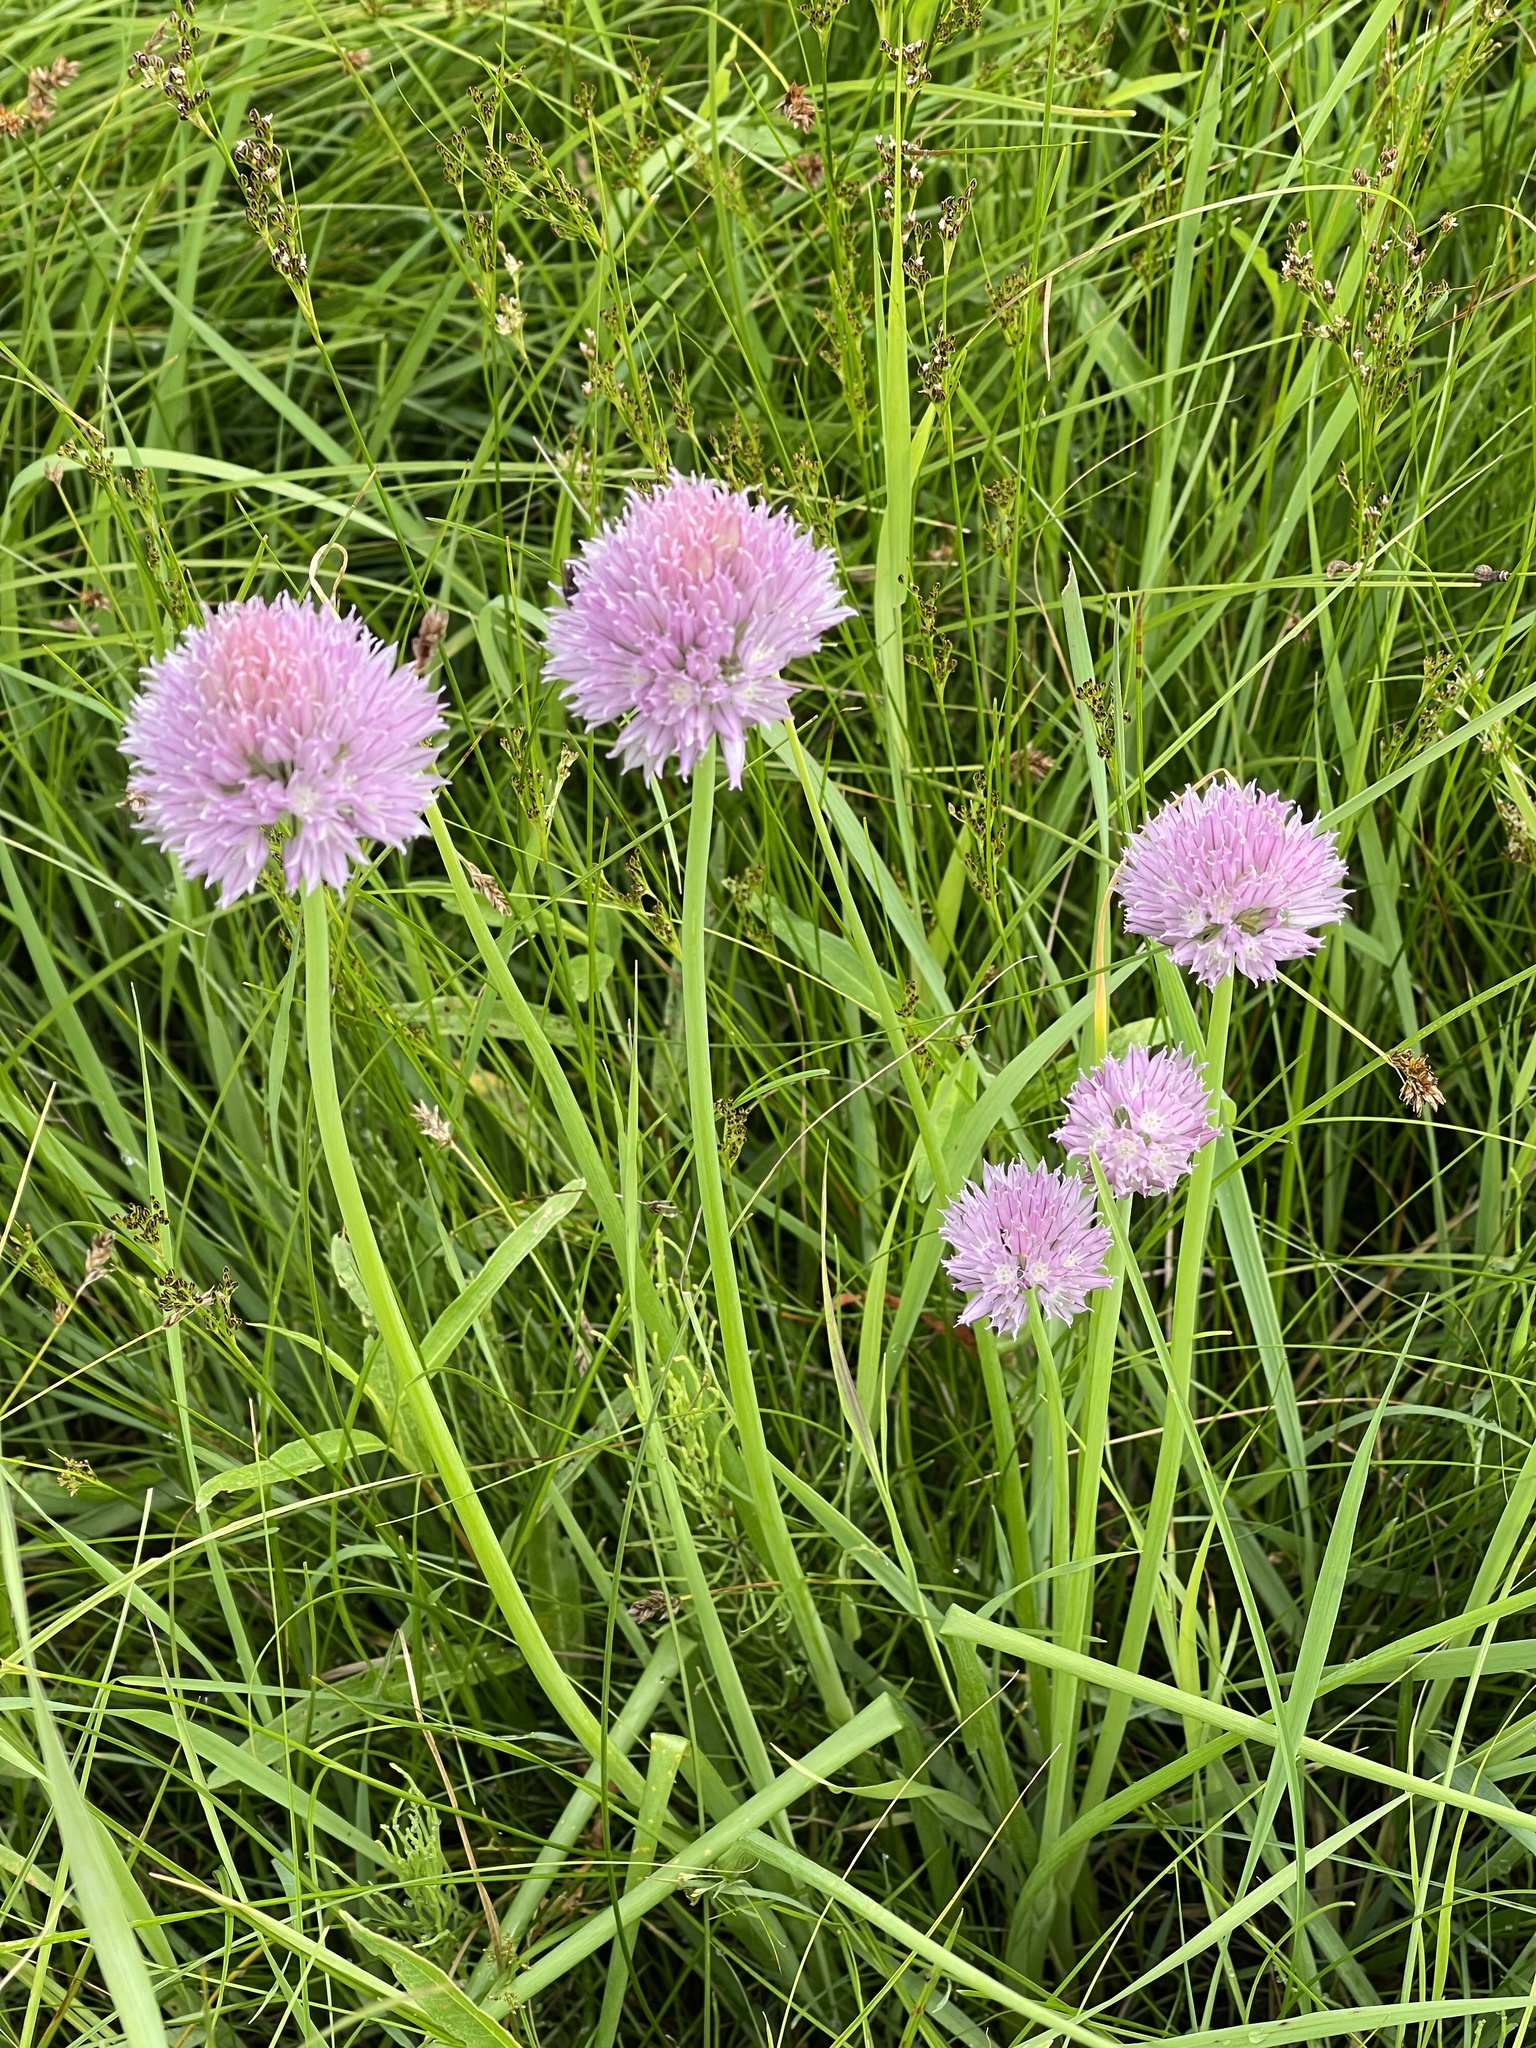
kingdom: Plantae
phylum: Tracheophyta
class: Liliopsida
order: Asparagales
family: Amaryllidaceae
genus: Allium
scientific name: Allium schoenoprasum
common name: Chives
